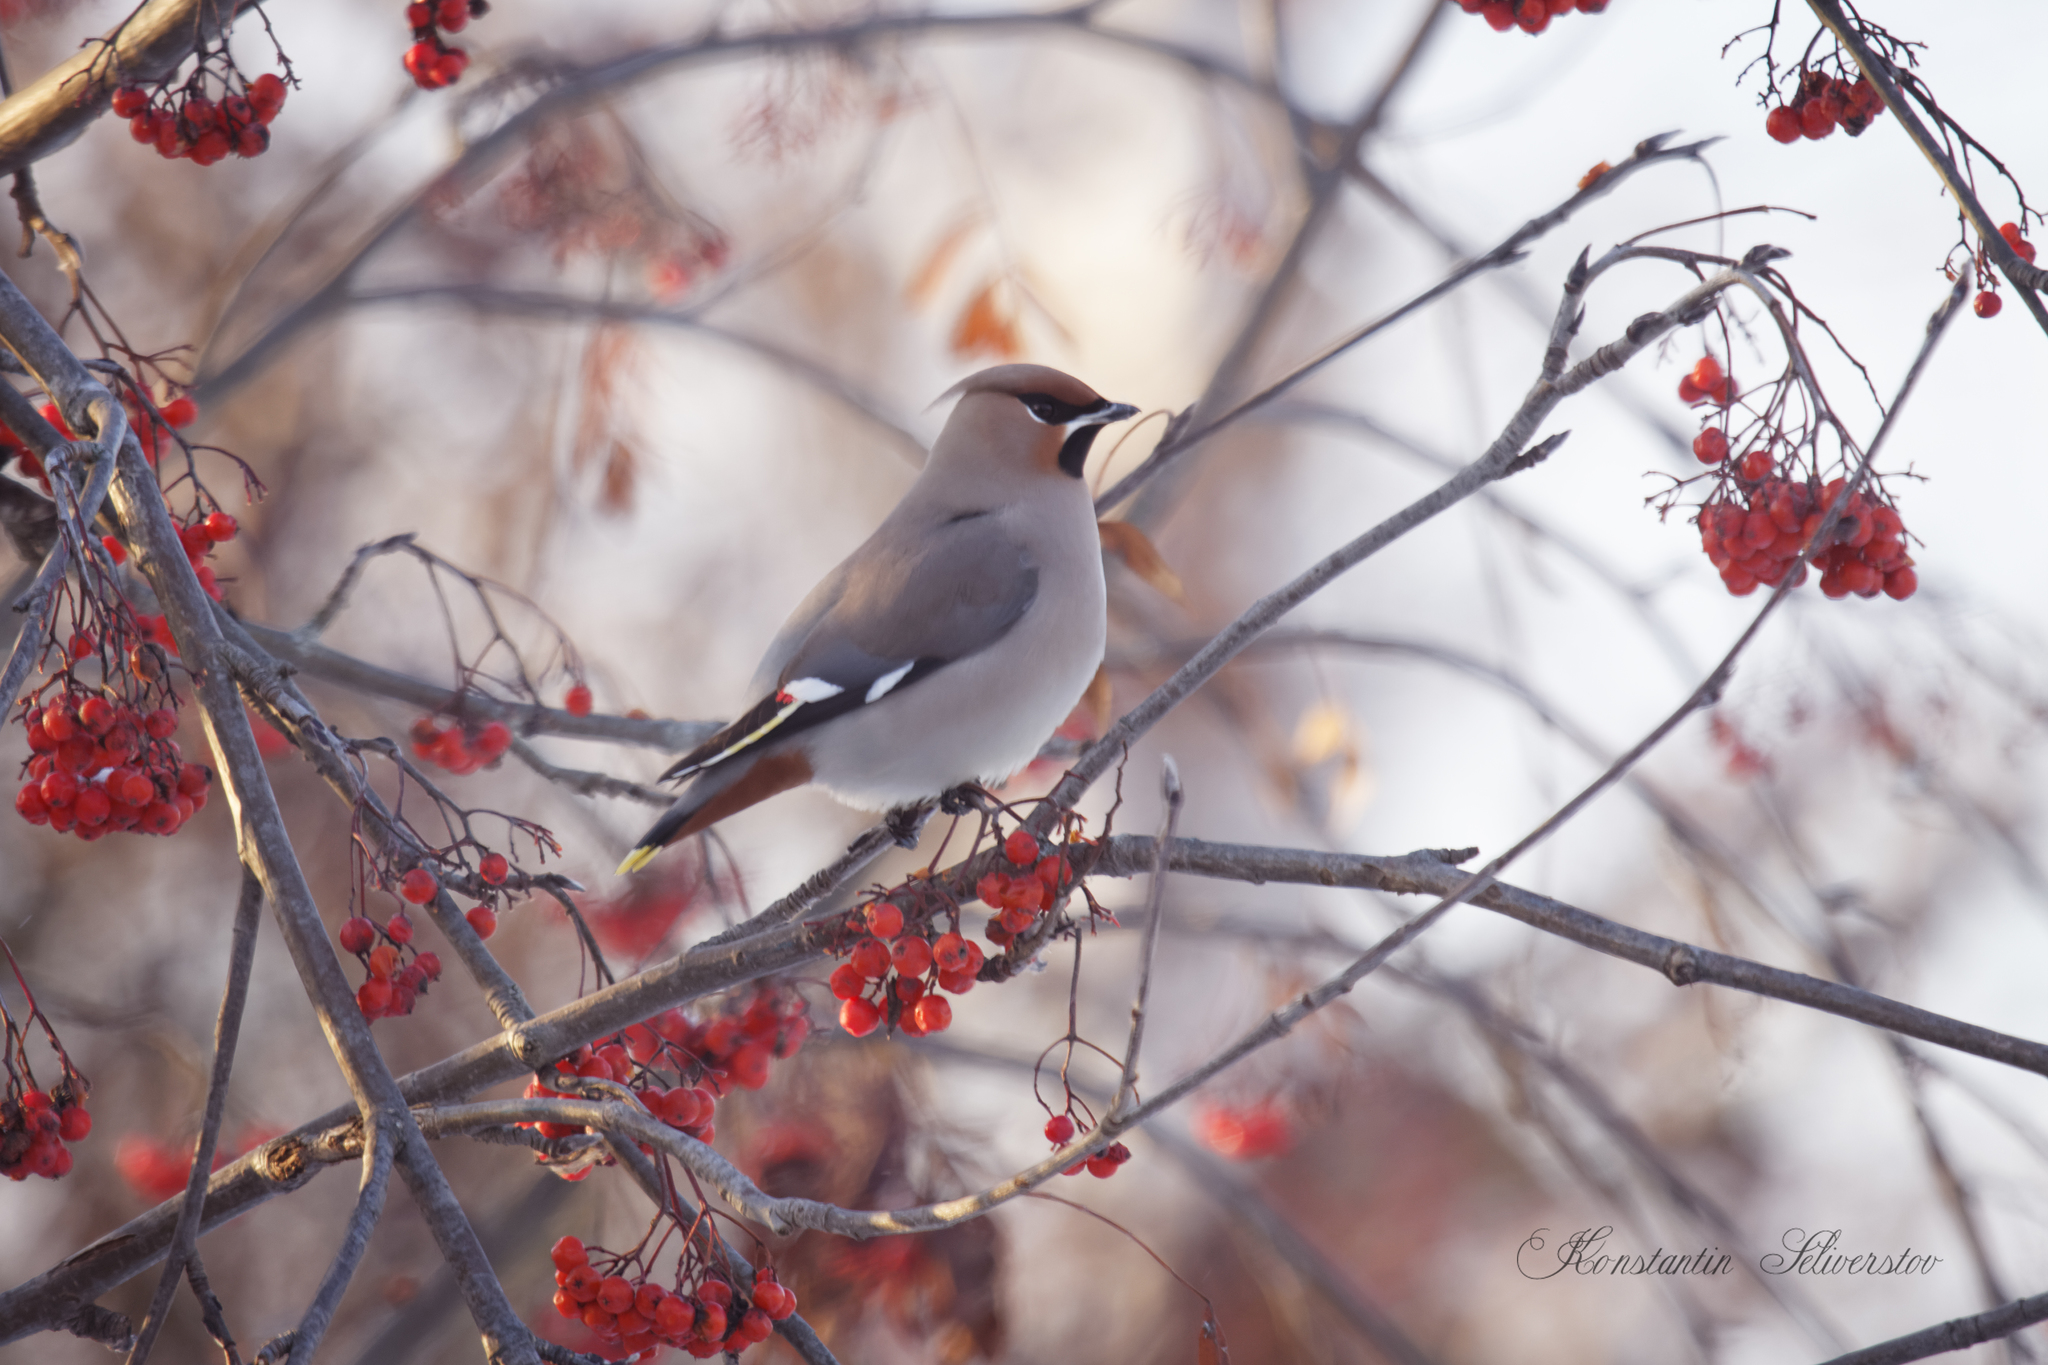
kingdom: Animalia
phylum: Chordata
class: Aves
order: Passeriformes
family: Bombycillidae
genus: Bombycilla
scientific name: Bombycilla garrulus
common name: Bohemian waxwing
